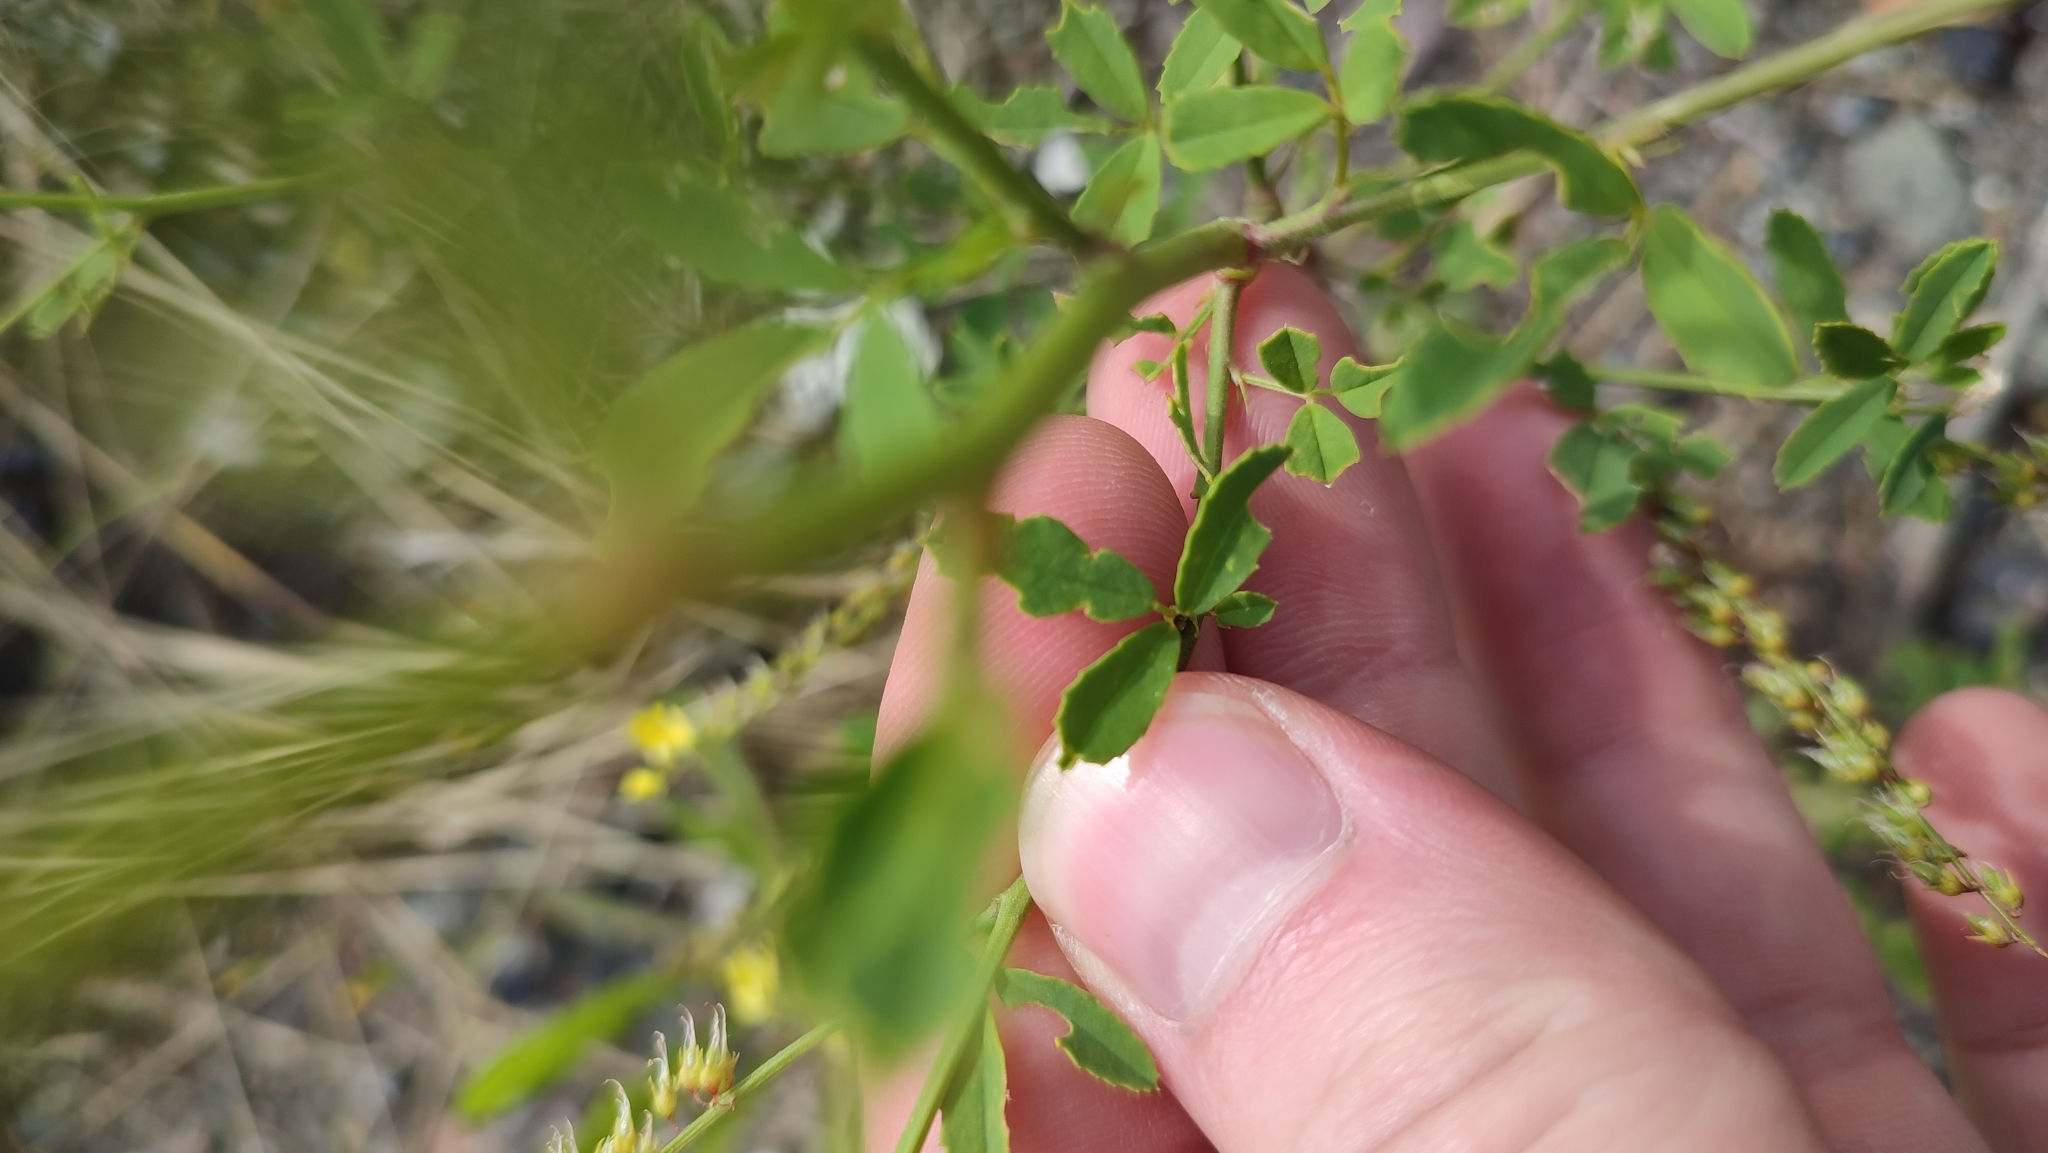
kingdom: Plantae
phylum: Tracheophyta
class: Magnoliopsida
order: Fabales
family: Fabaceae
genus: Melilotus
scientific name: Melilotus officinalis
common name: Sweetclover
